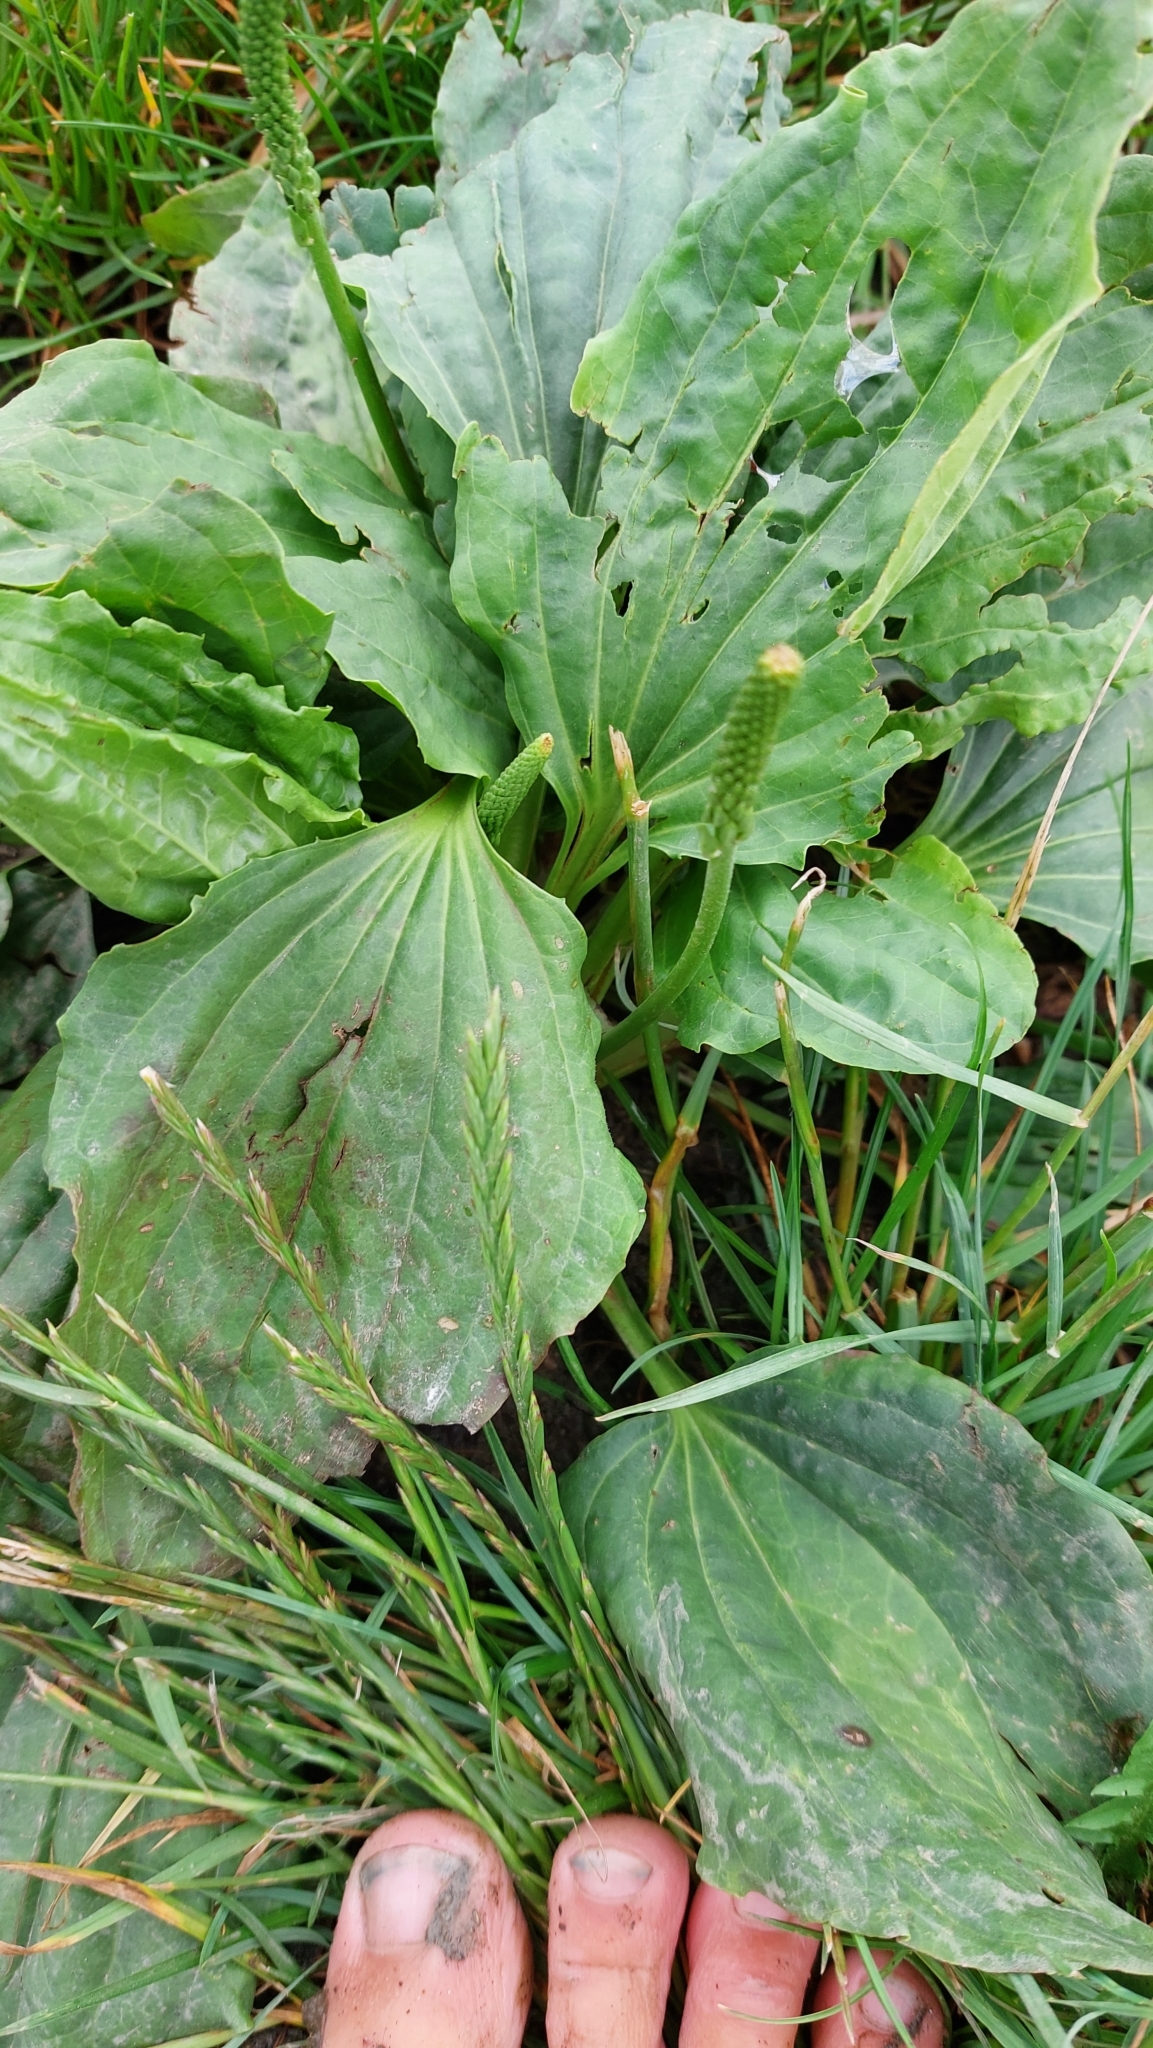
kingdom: Plantae
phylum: Tracheophyta
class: Magnoliopsida
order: Lamiales
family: Plantaginaceae
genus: Plantago
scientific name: Plantago major
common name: Common plantain
